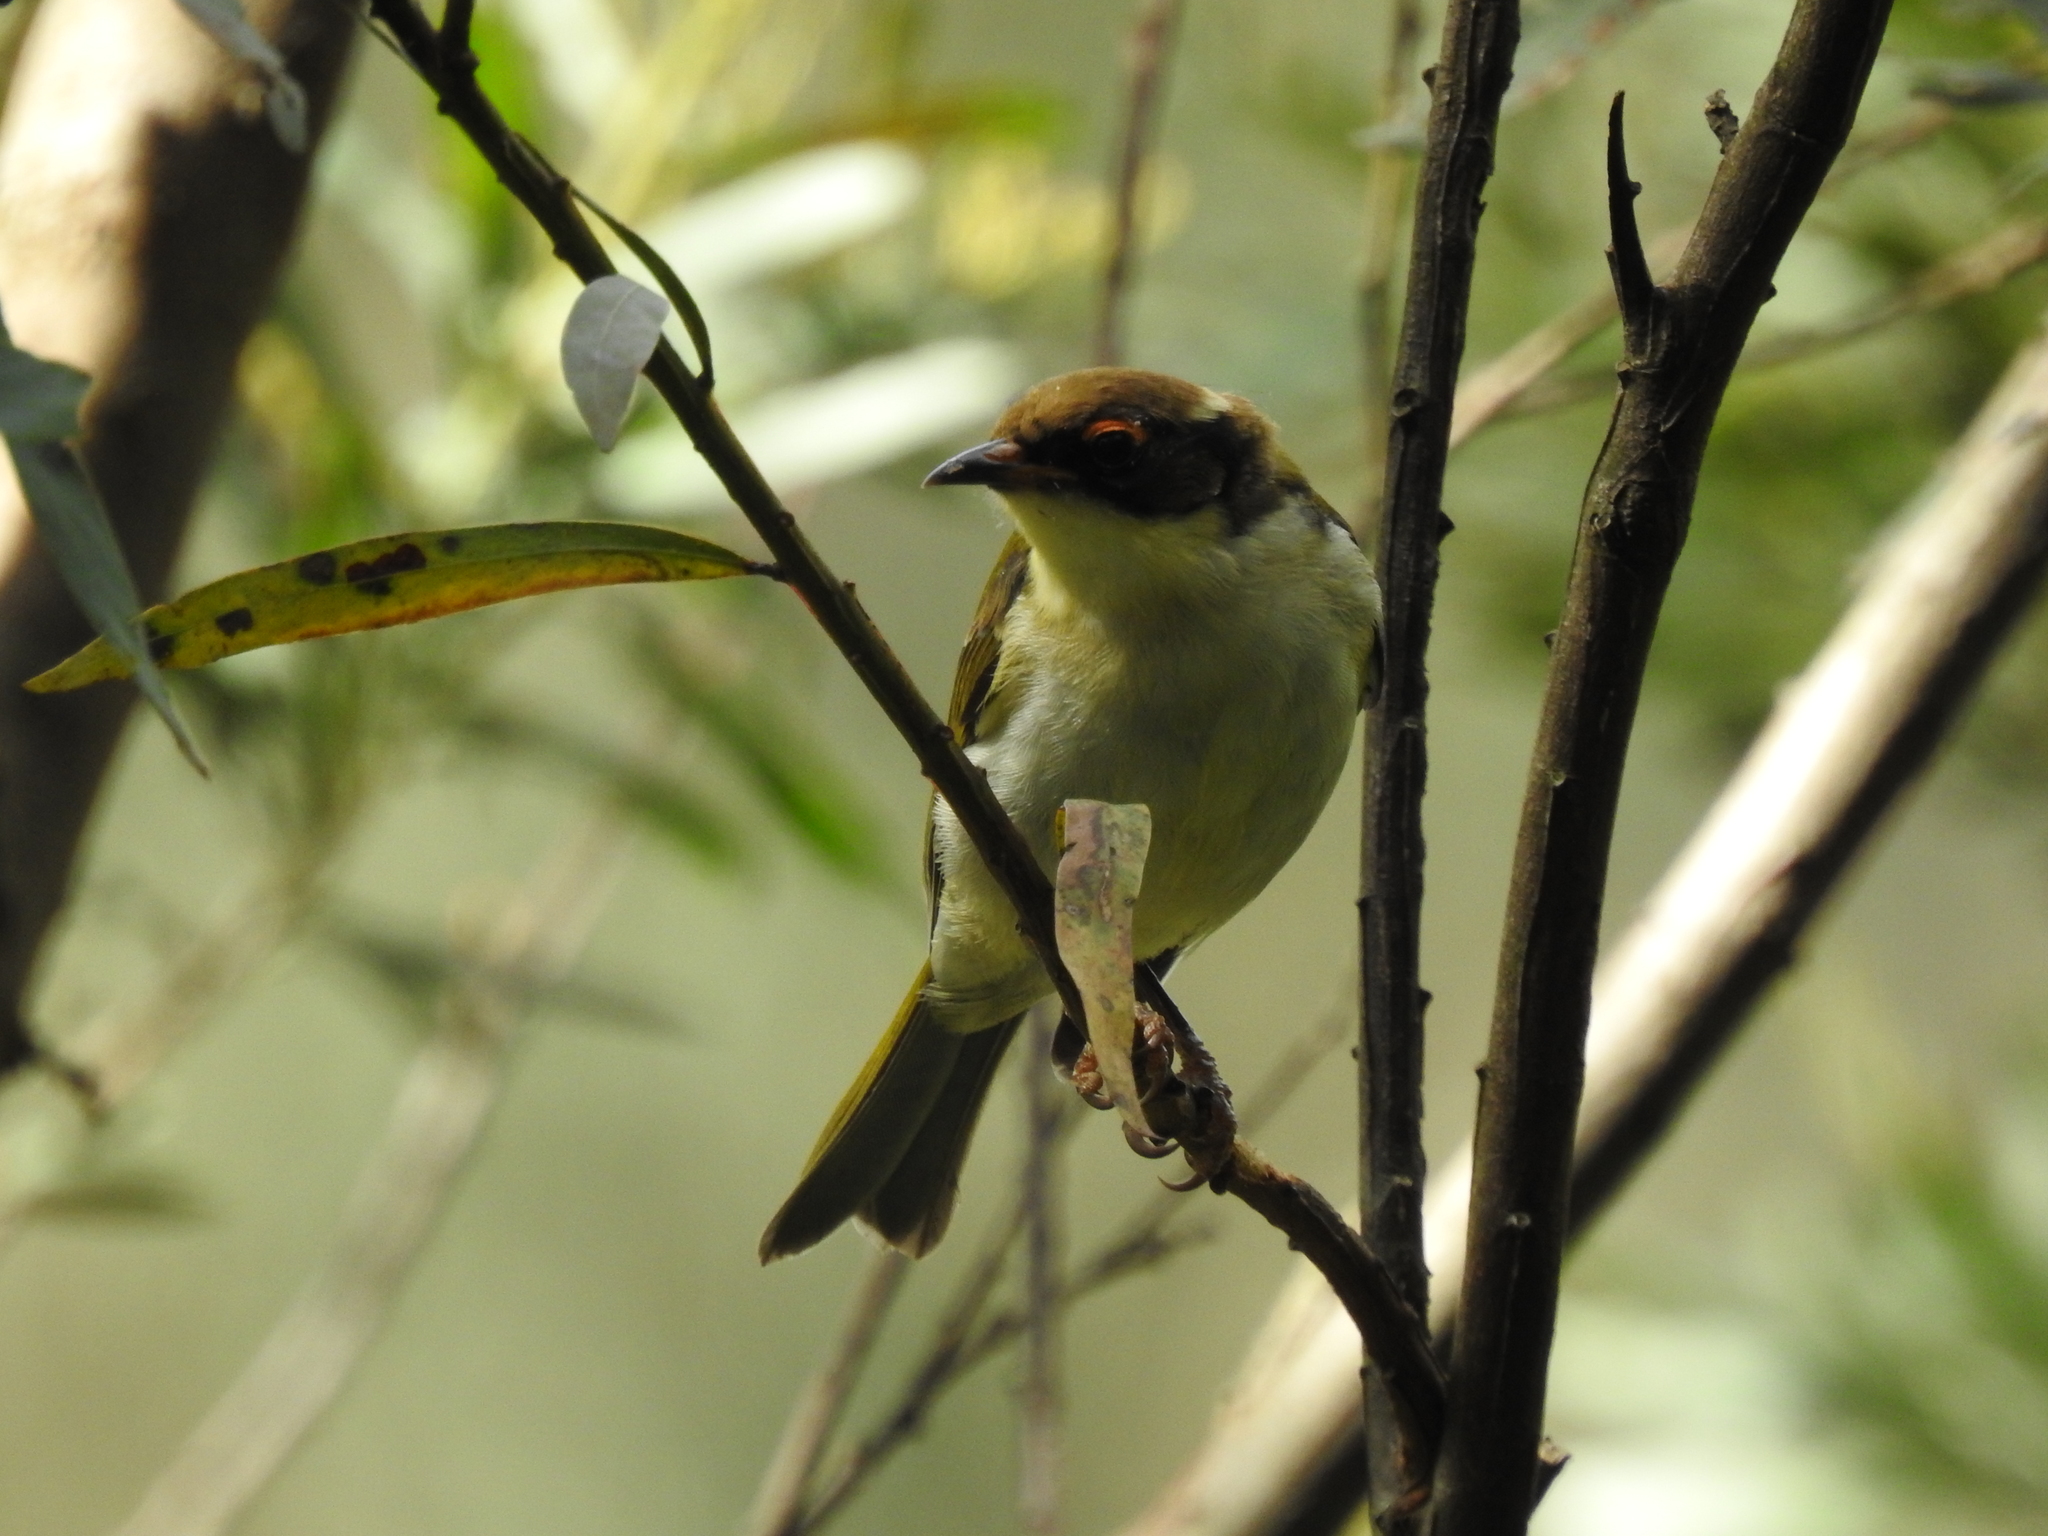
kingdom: Animalia
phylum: Chordata
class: Aves
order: Passeriformes
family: Meliphagidae
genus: Melithreptus
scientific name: Melithreptus lunatus
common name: White-naped honeyeater
